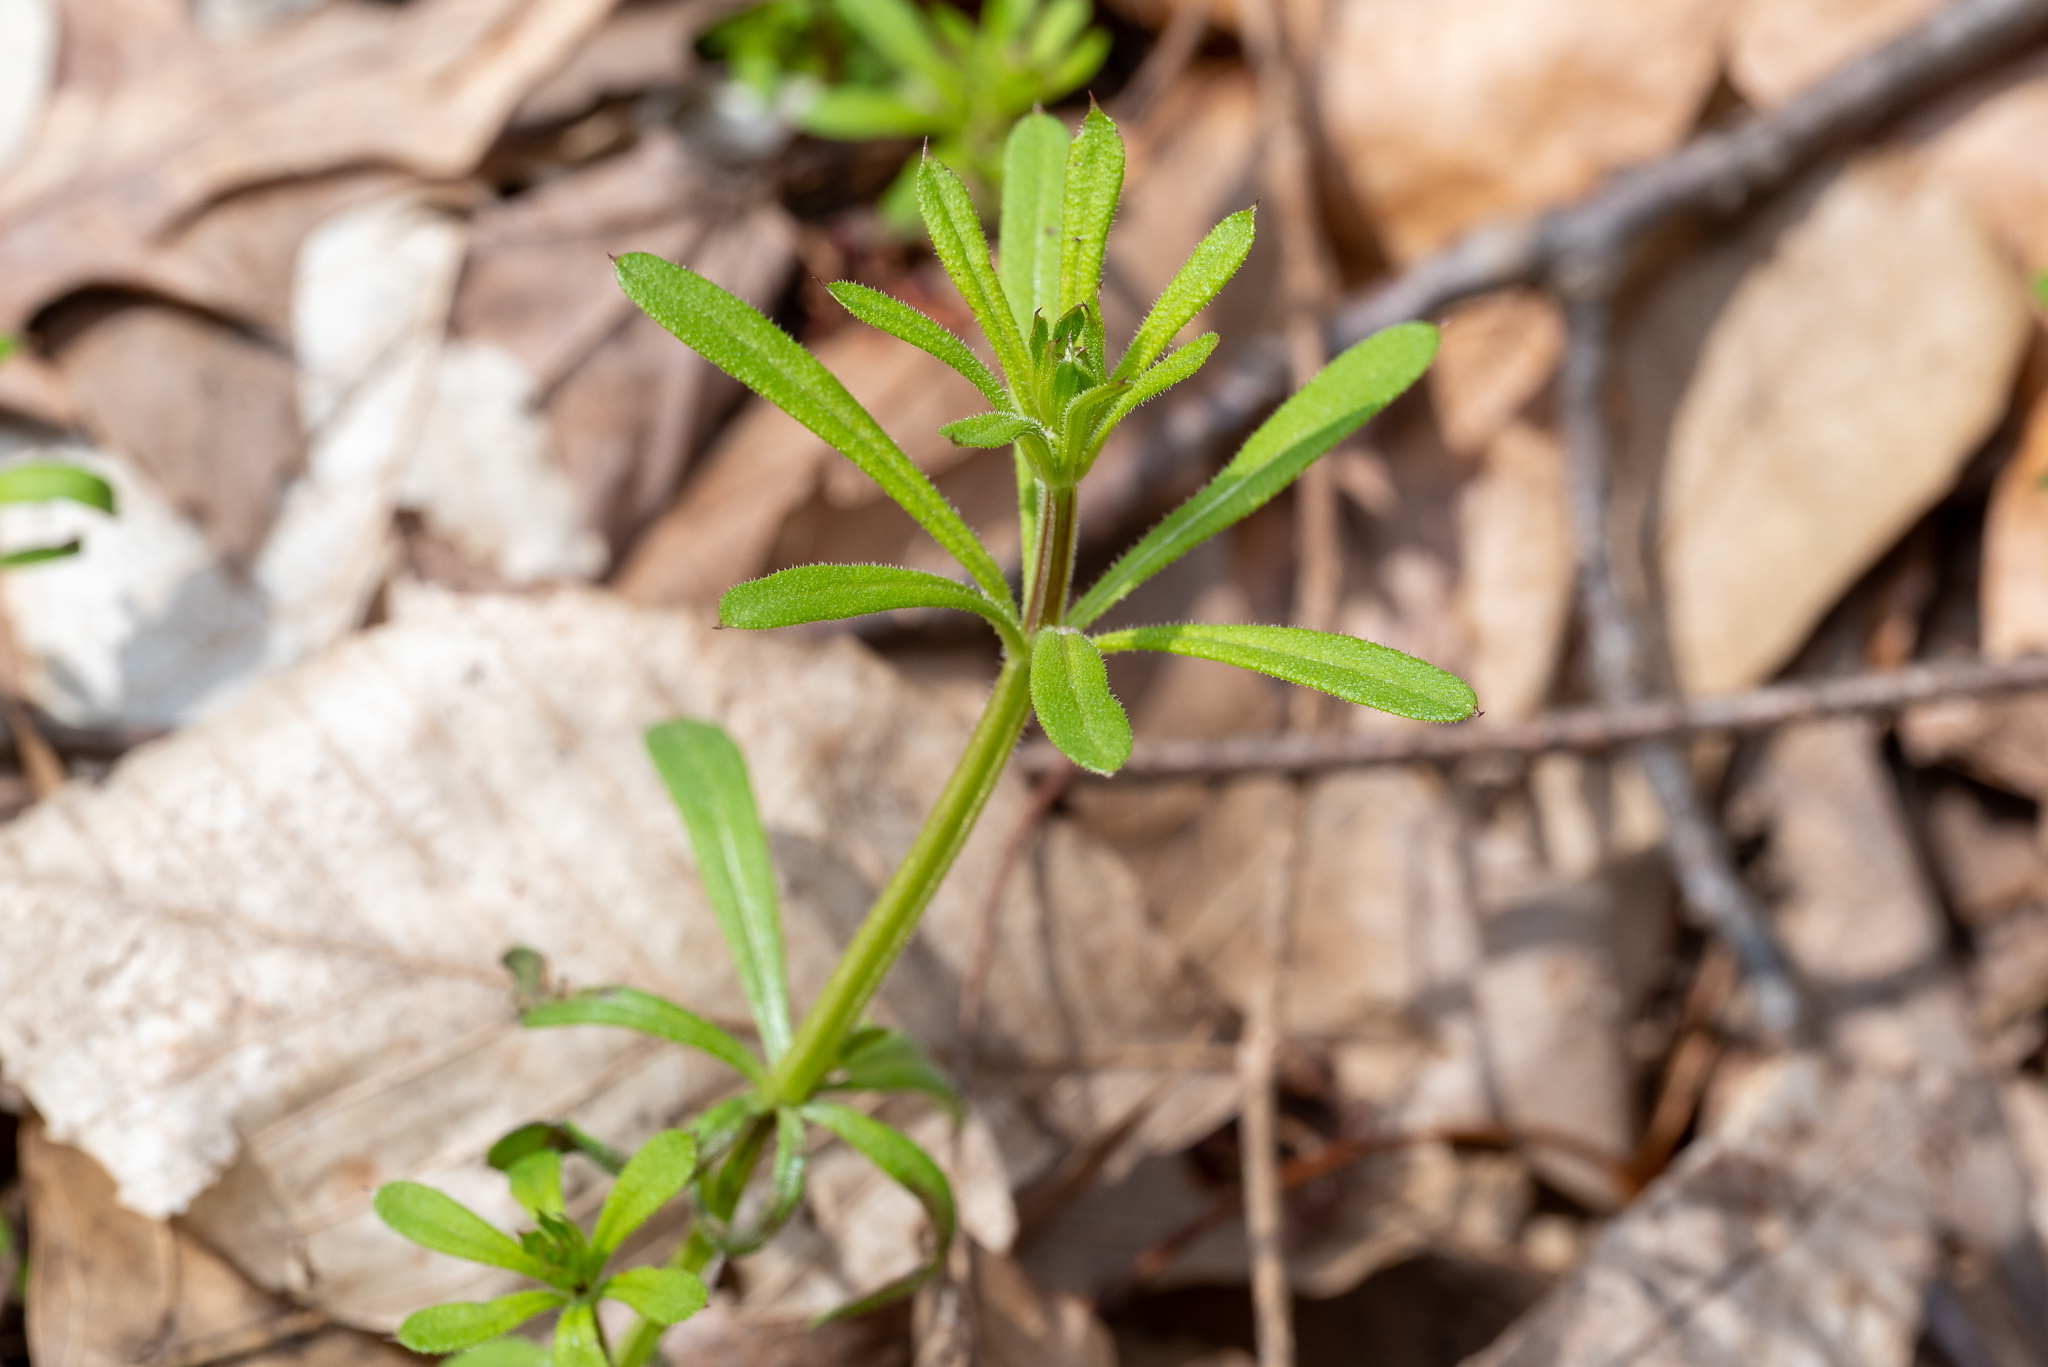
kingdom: Plantae
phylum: Tracheophyta
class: Magnoliopsida
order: Gentianales
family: Rubiaceae
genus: Galium
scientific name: Galium aparine
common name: Cleavers
